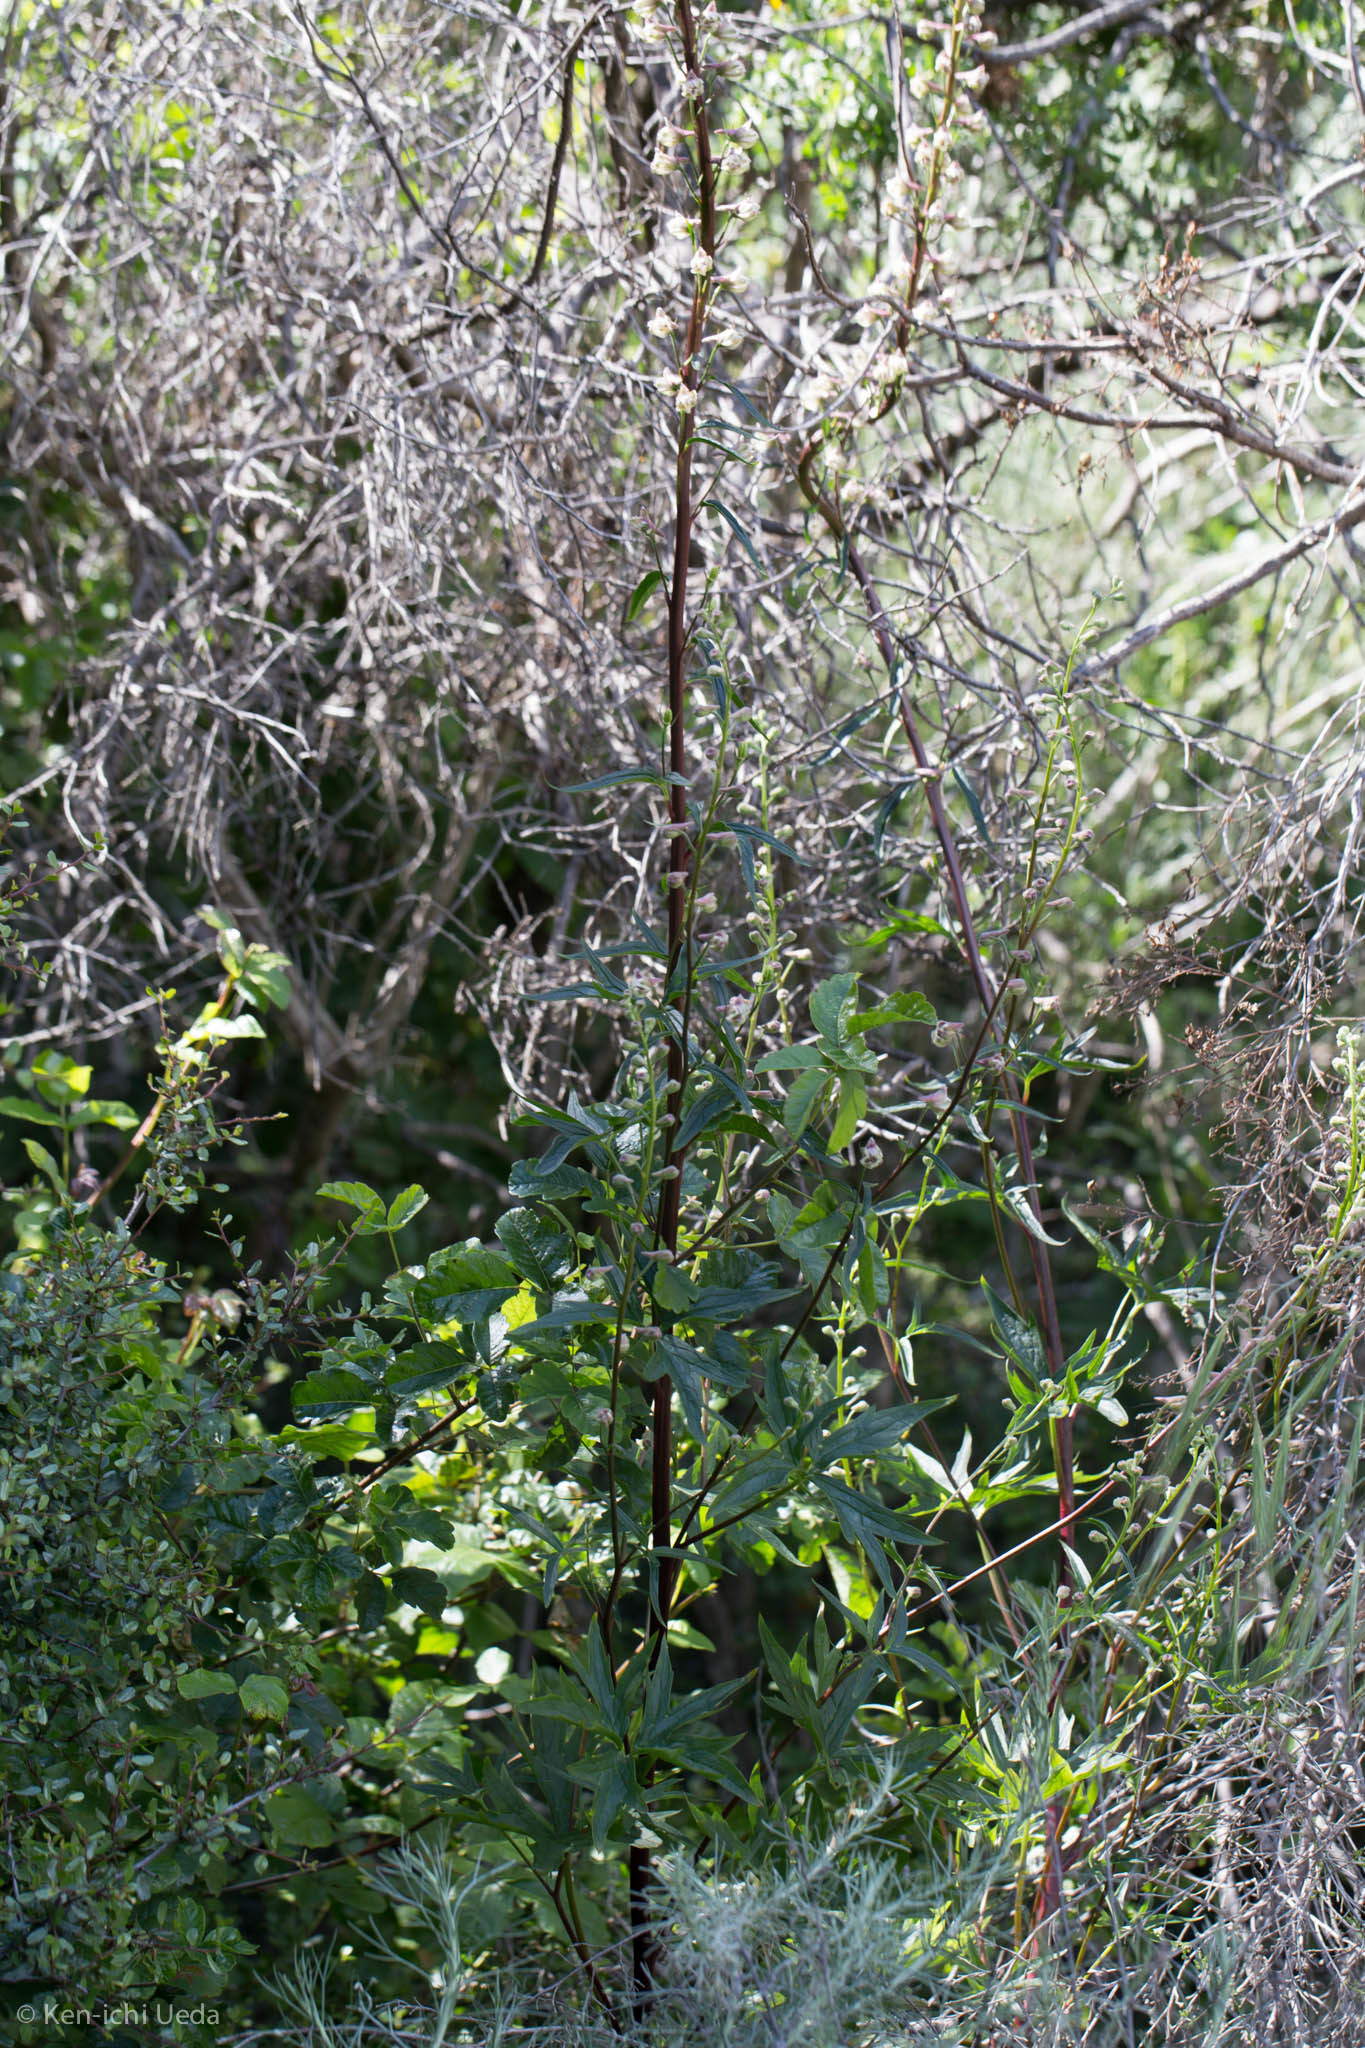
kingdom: Plantae
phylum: Tracheophyta
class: Magnoliopsida
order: Ranunculales
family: Ranunculaceae
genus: Delphinium
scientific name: Delphinium californicum
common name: California larkspur
